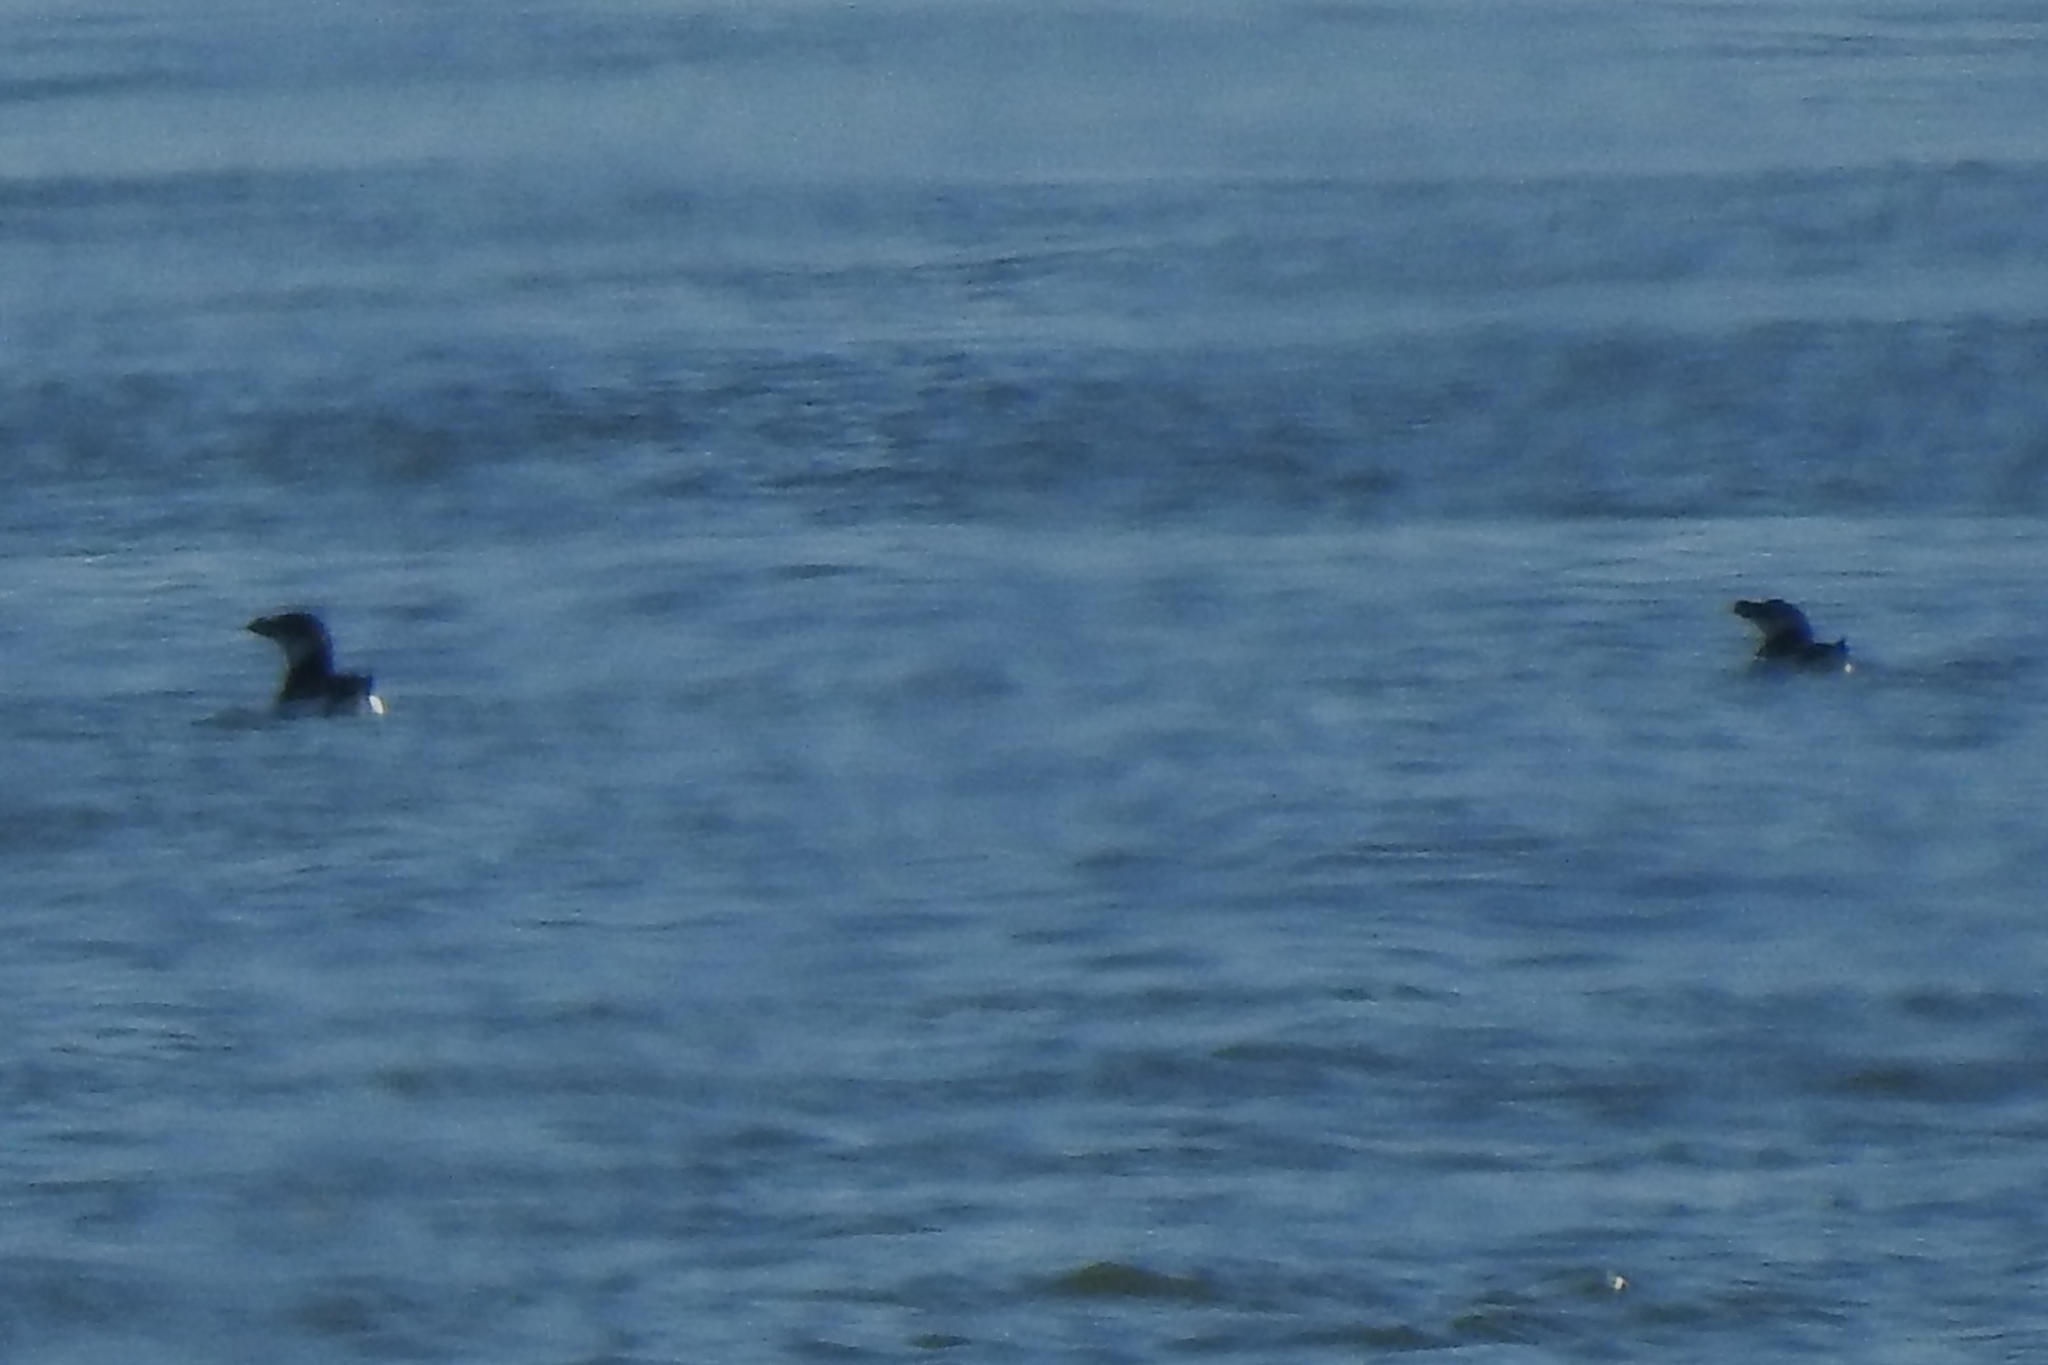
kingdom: Animalia
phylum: Chordata
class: Aves
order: Charadriiformes
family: Alcidae
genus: Alca
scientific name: Alca torda
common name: Razorbill
